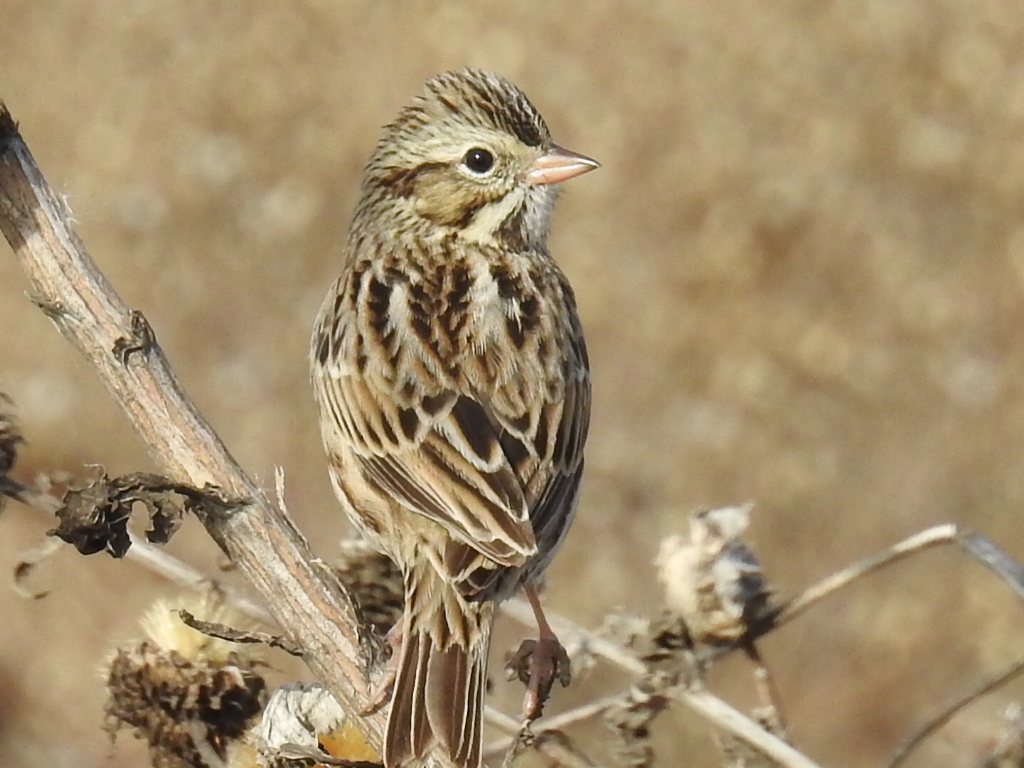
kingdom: Animalia
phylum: Chordata
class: Aves
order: Passeriformes
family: Passerellidae
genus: Passerculus
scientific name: Passerculus sandwichensis
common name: Savannah sparrow
